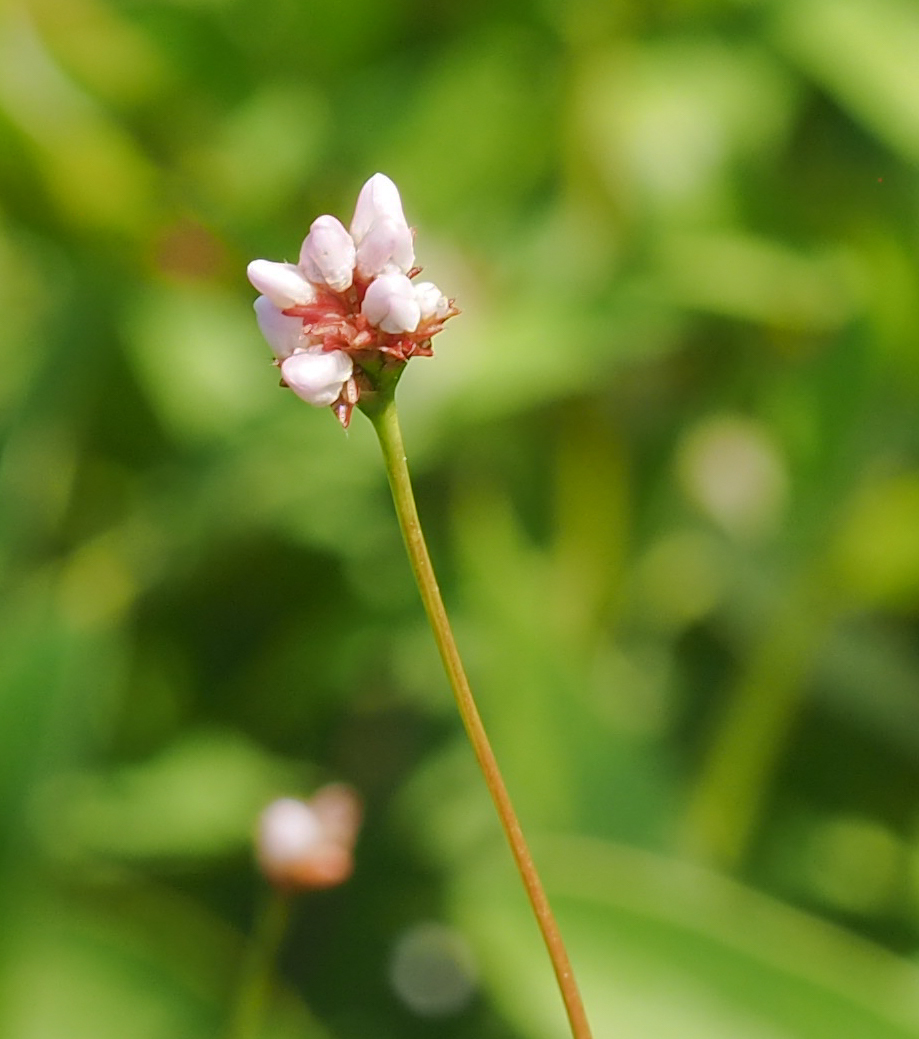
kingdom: Plantae
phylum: Tracheophyta
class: Magnoliopsida
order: Caryophyllales
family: Polygonaceae
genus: Persicaria
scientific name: Persicaria sagittata
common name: American tearthumb
